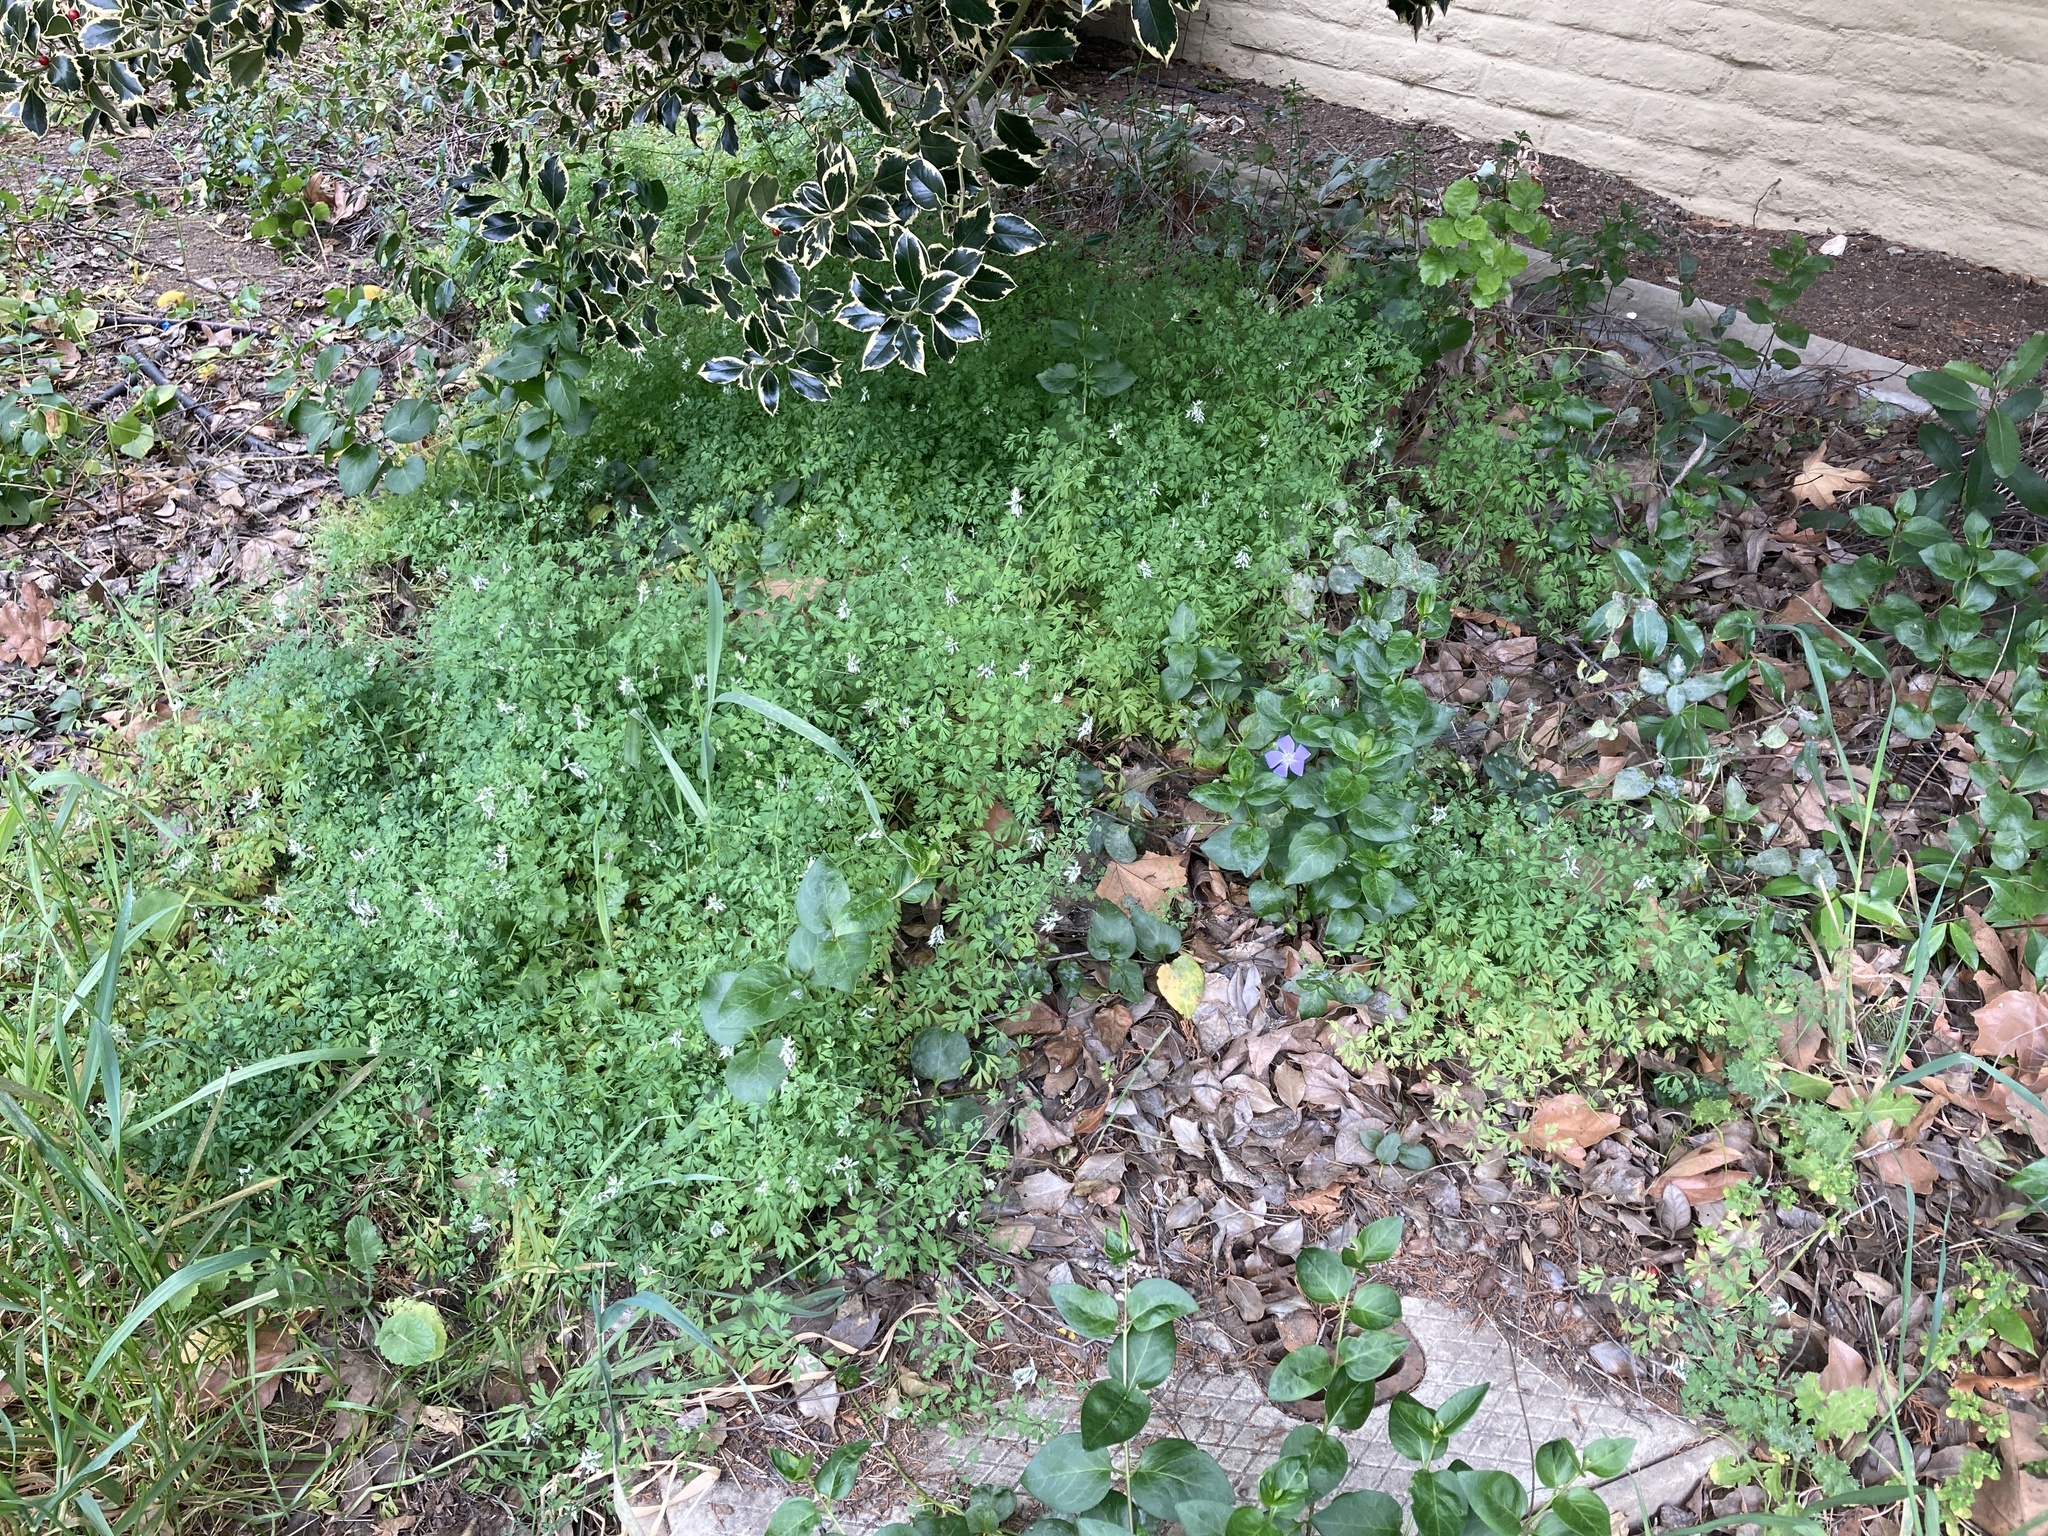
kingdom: Plantae
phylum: Tracheophyta
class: Magnoliopsida
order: Ranunculales
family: Papaveraceae
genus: Fumaria
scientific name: Fumaria capreolata
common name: White ramping-fumitory
